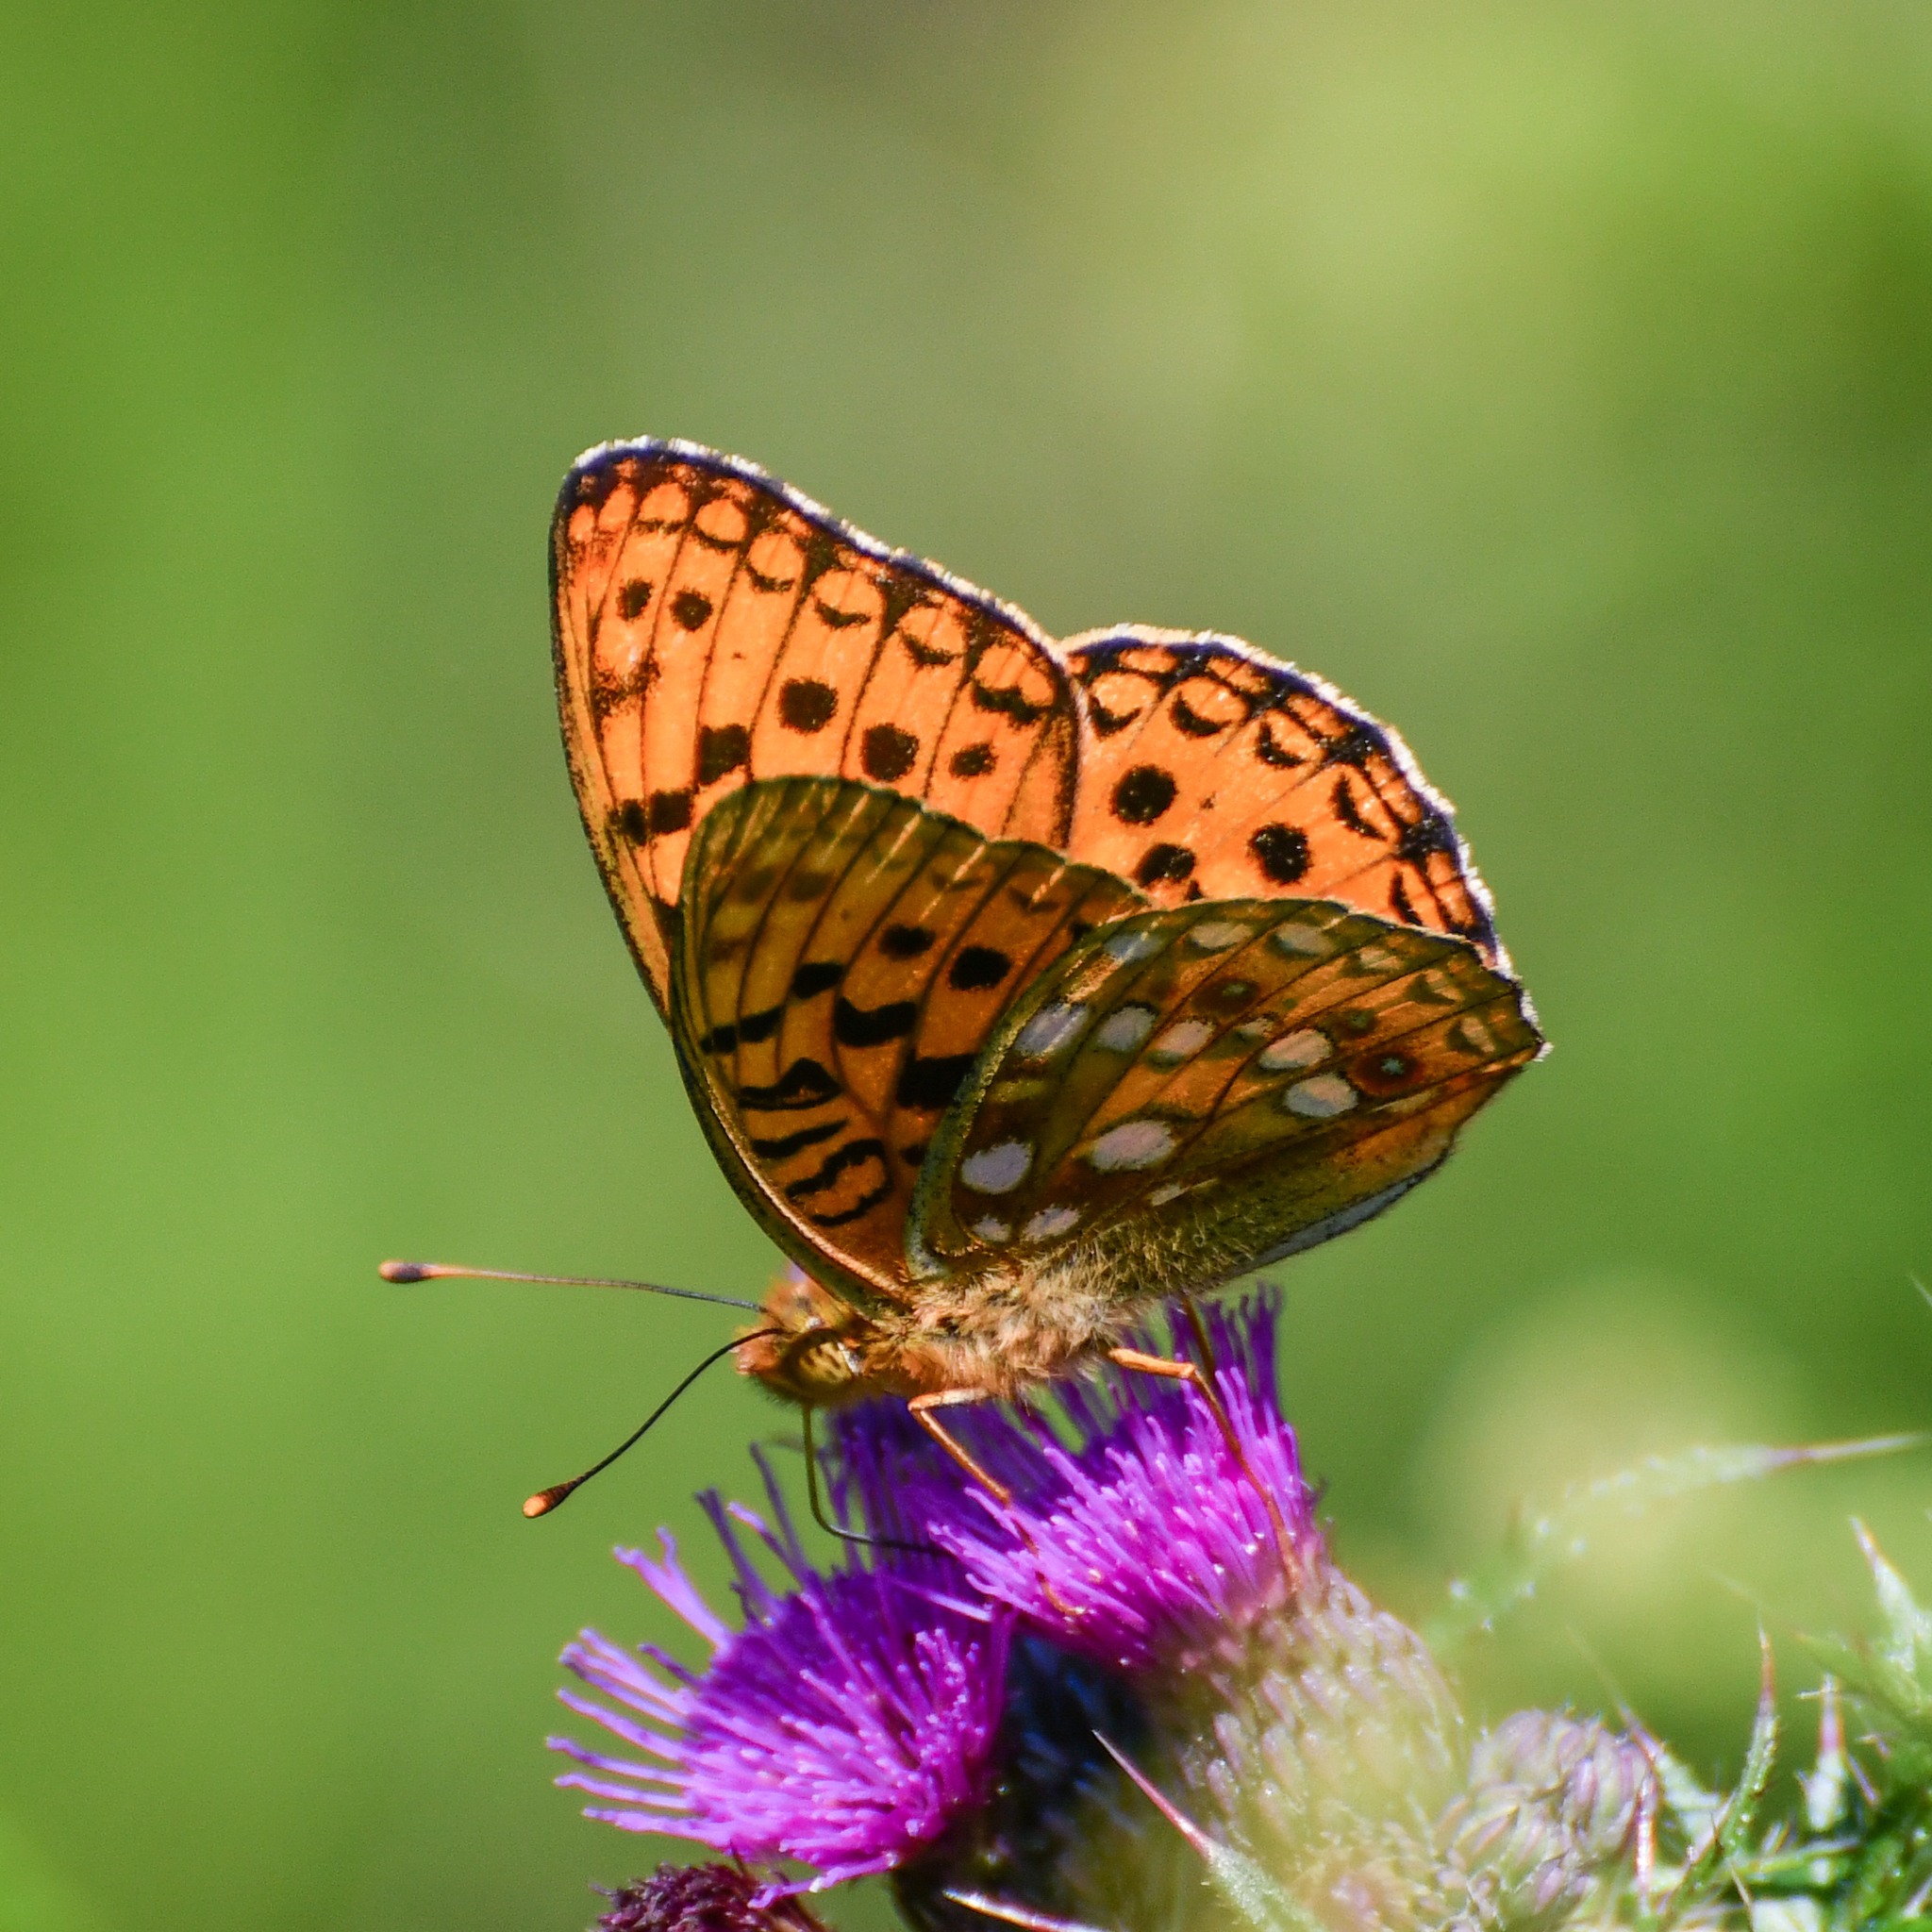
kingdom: Animalia
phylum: Arthropoda
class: Insecta
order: Lepidoptera
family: Nymphalidae
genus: Fabriciana
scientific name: Fabriciana adippe
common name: High brown fritillary
